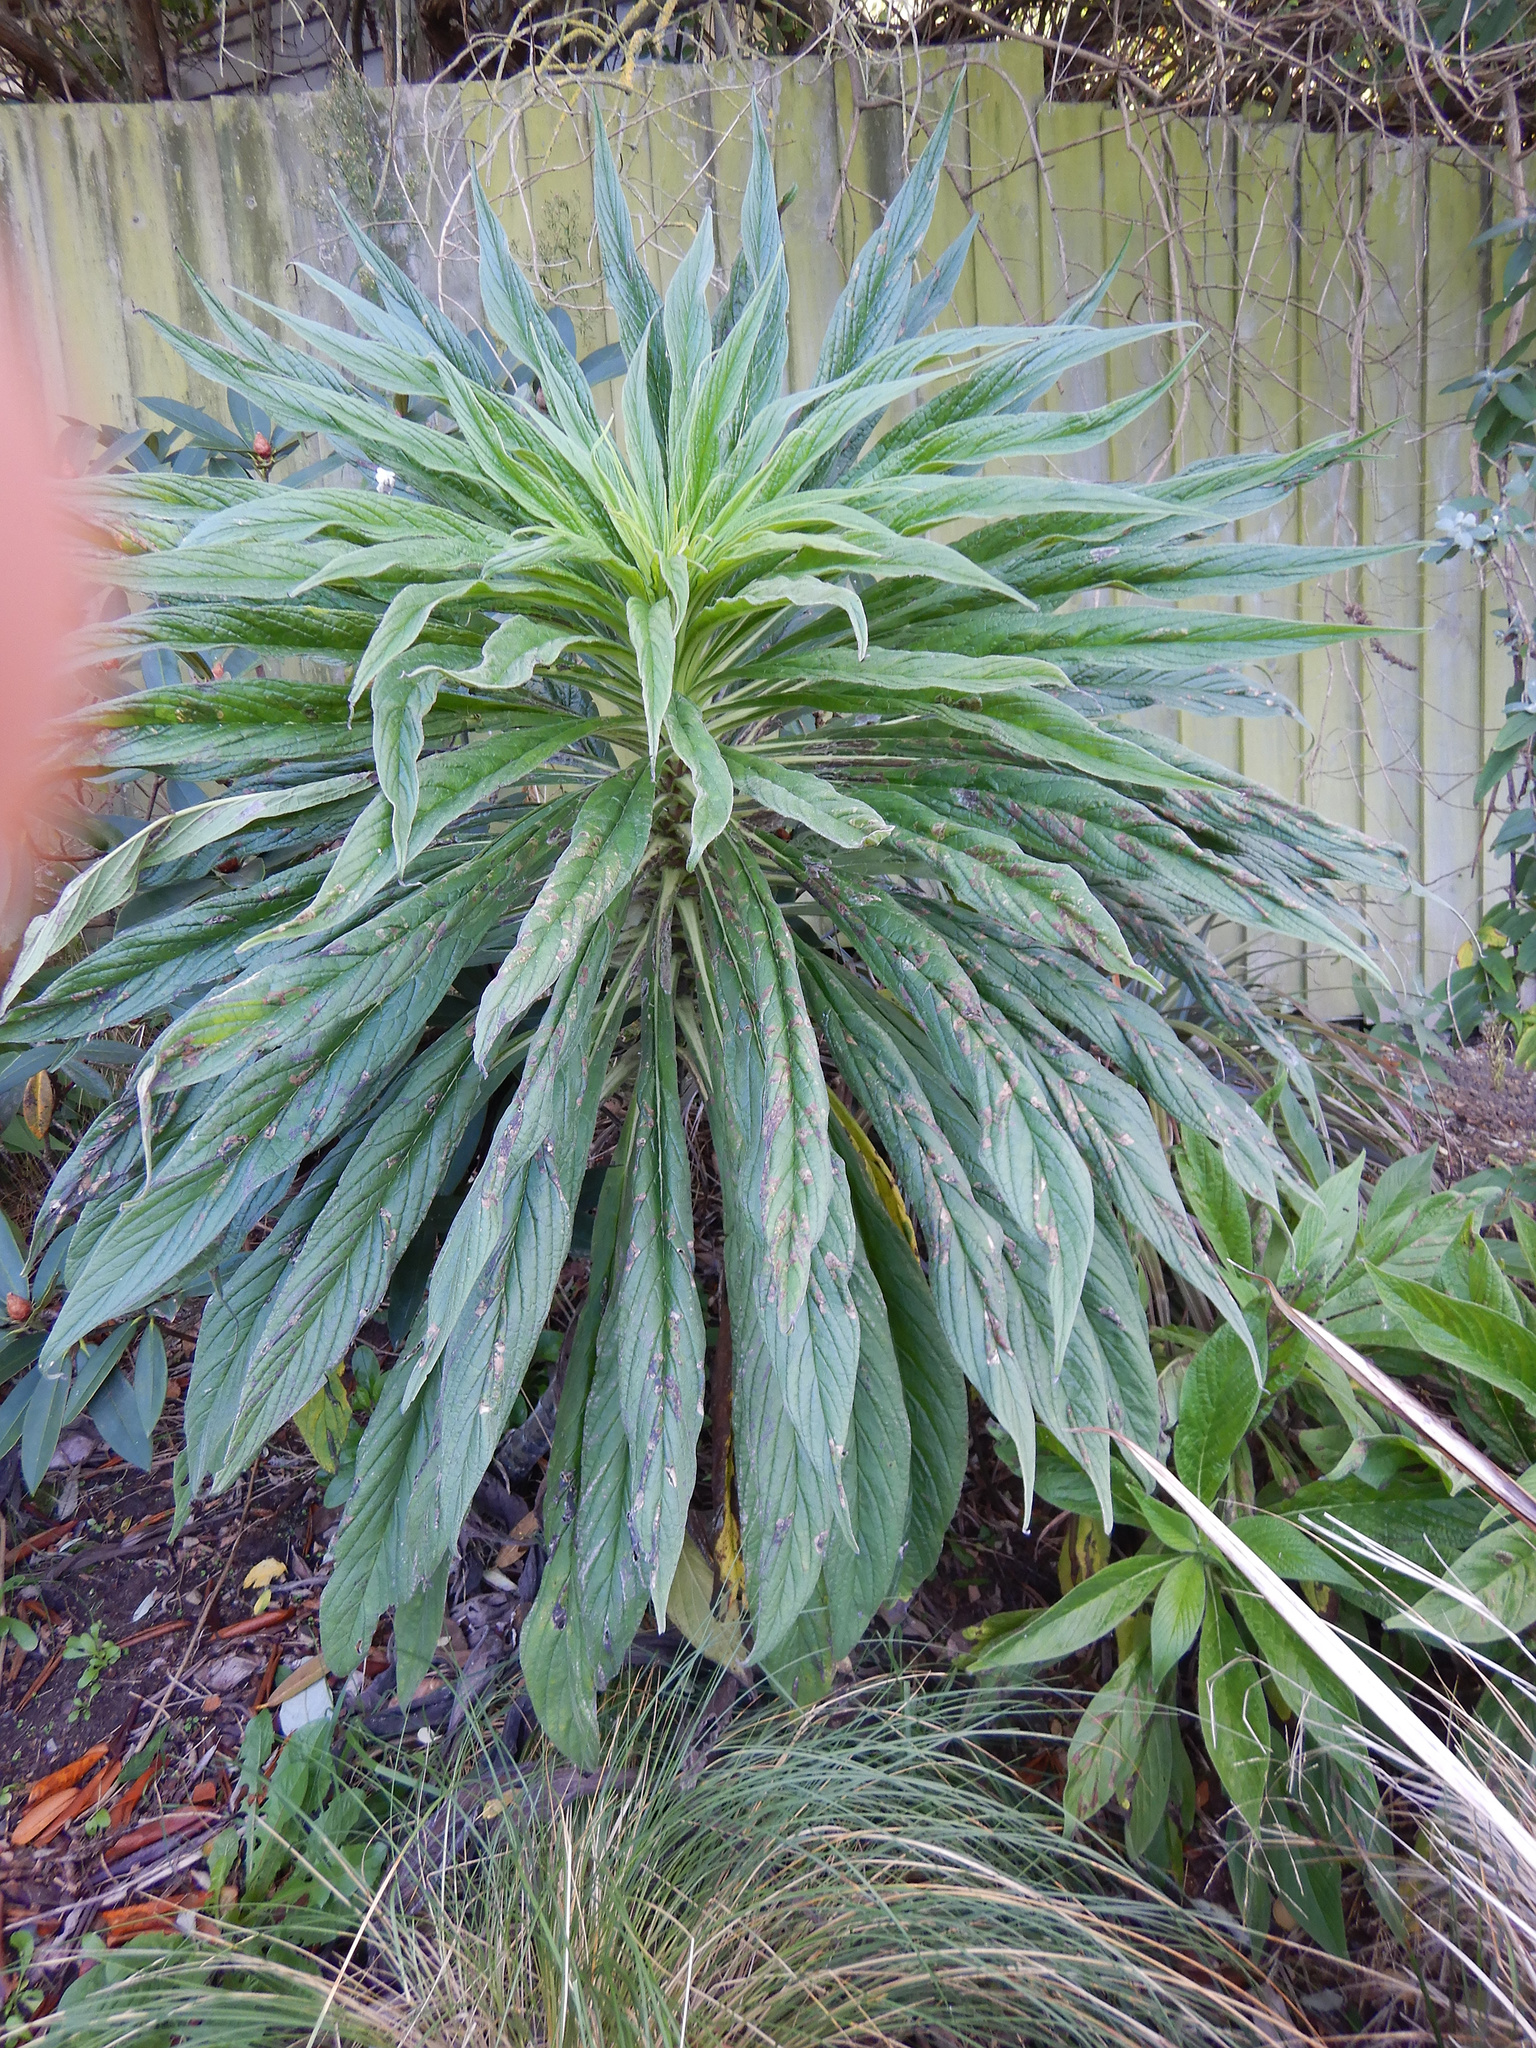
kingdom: Plantae
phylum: Tracheophyta
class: Magnoliopsida
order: Boraginales
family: Boraginaceae
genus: Echium
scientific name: Echium pininana
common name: Giant viper's-bugloss
